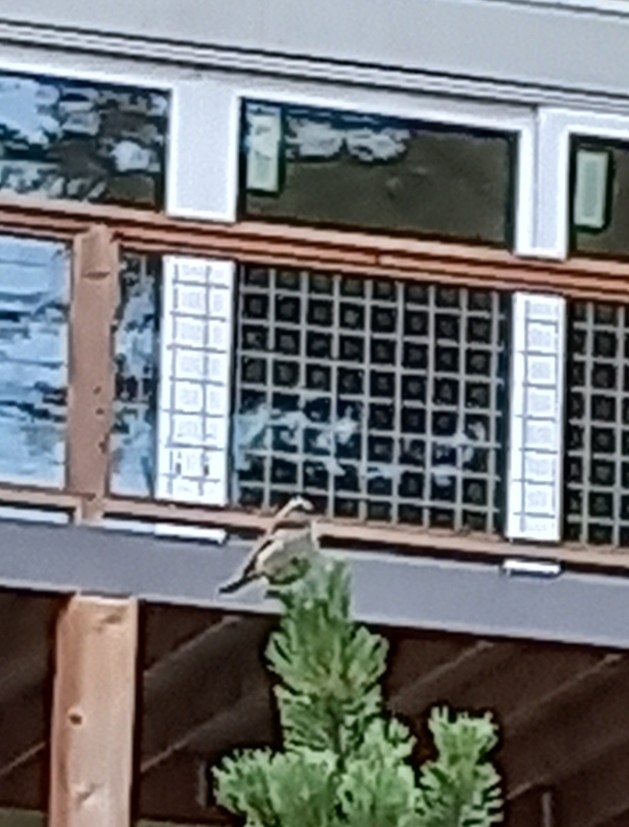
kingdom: Animalia
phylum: Chordata
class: Aves
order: Passeriformes
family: Passerellidae
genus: Zonotrichia
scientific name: Zonotrichia leucophrys
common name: White-crowned sparrow
